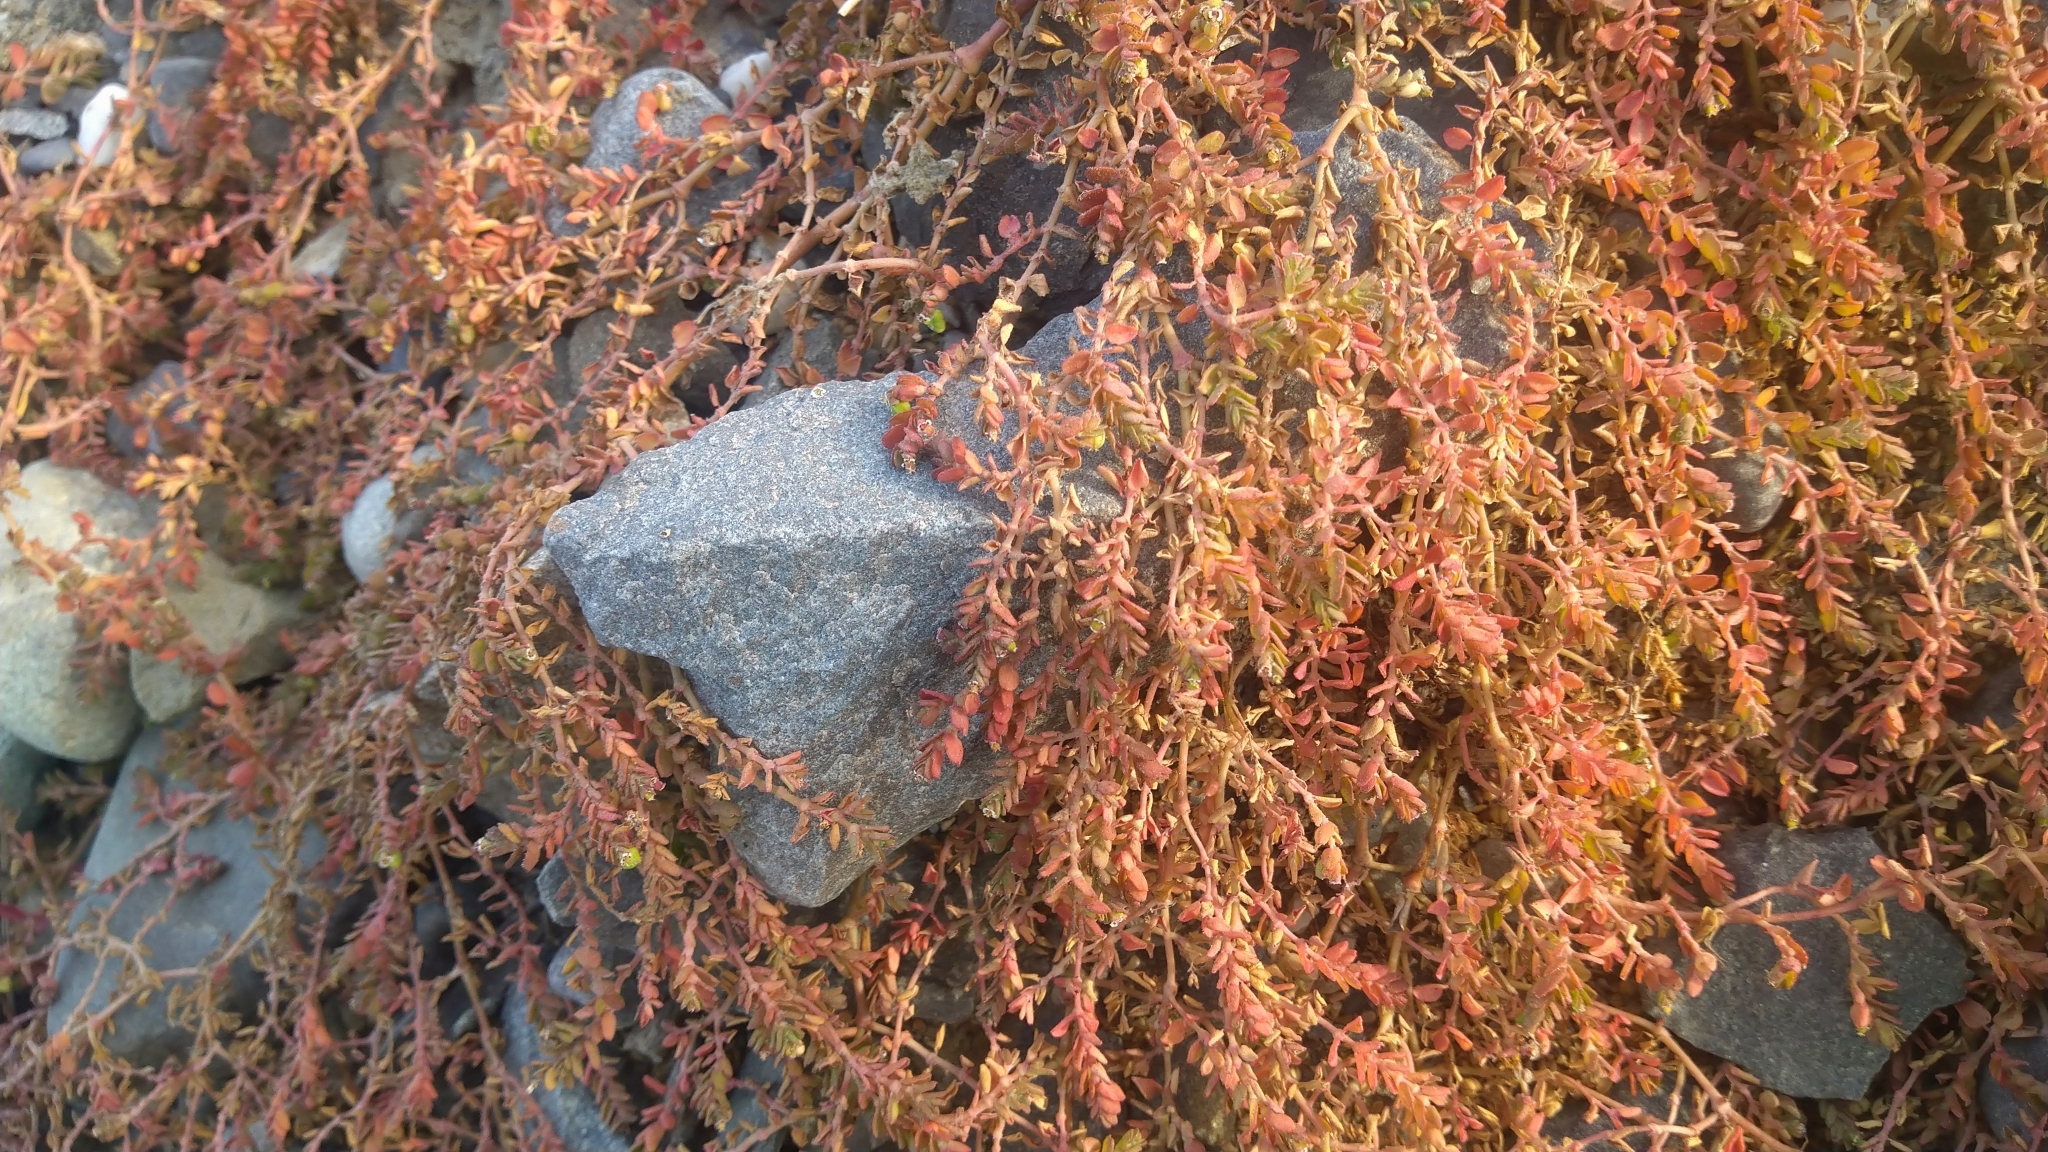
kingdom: Plantae
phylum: Tracheophyta
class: Magnoliopsida
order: Malpighiales
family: Euphorbiaceae
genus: Euphorbia
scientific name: Euphorbia serpens
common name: Matted sandmat
